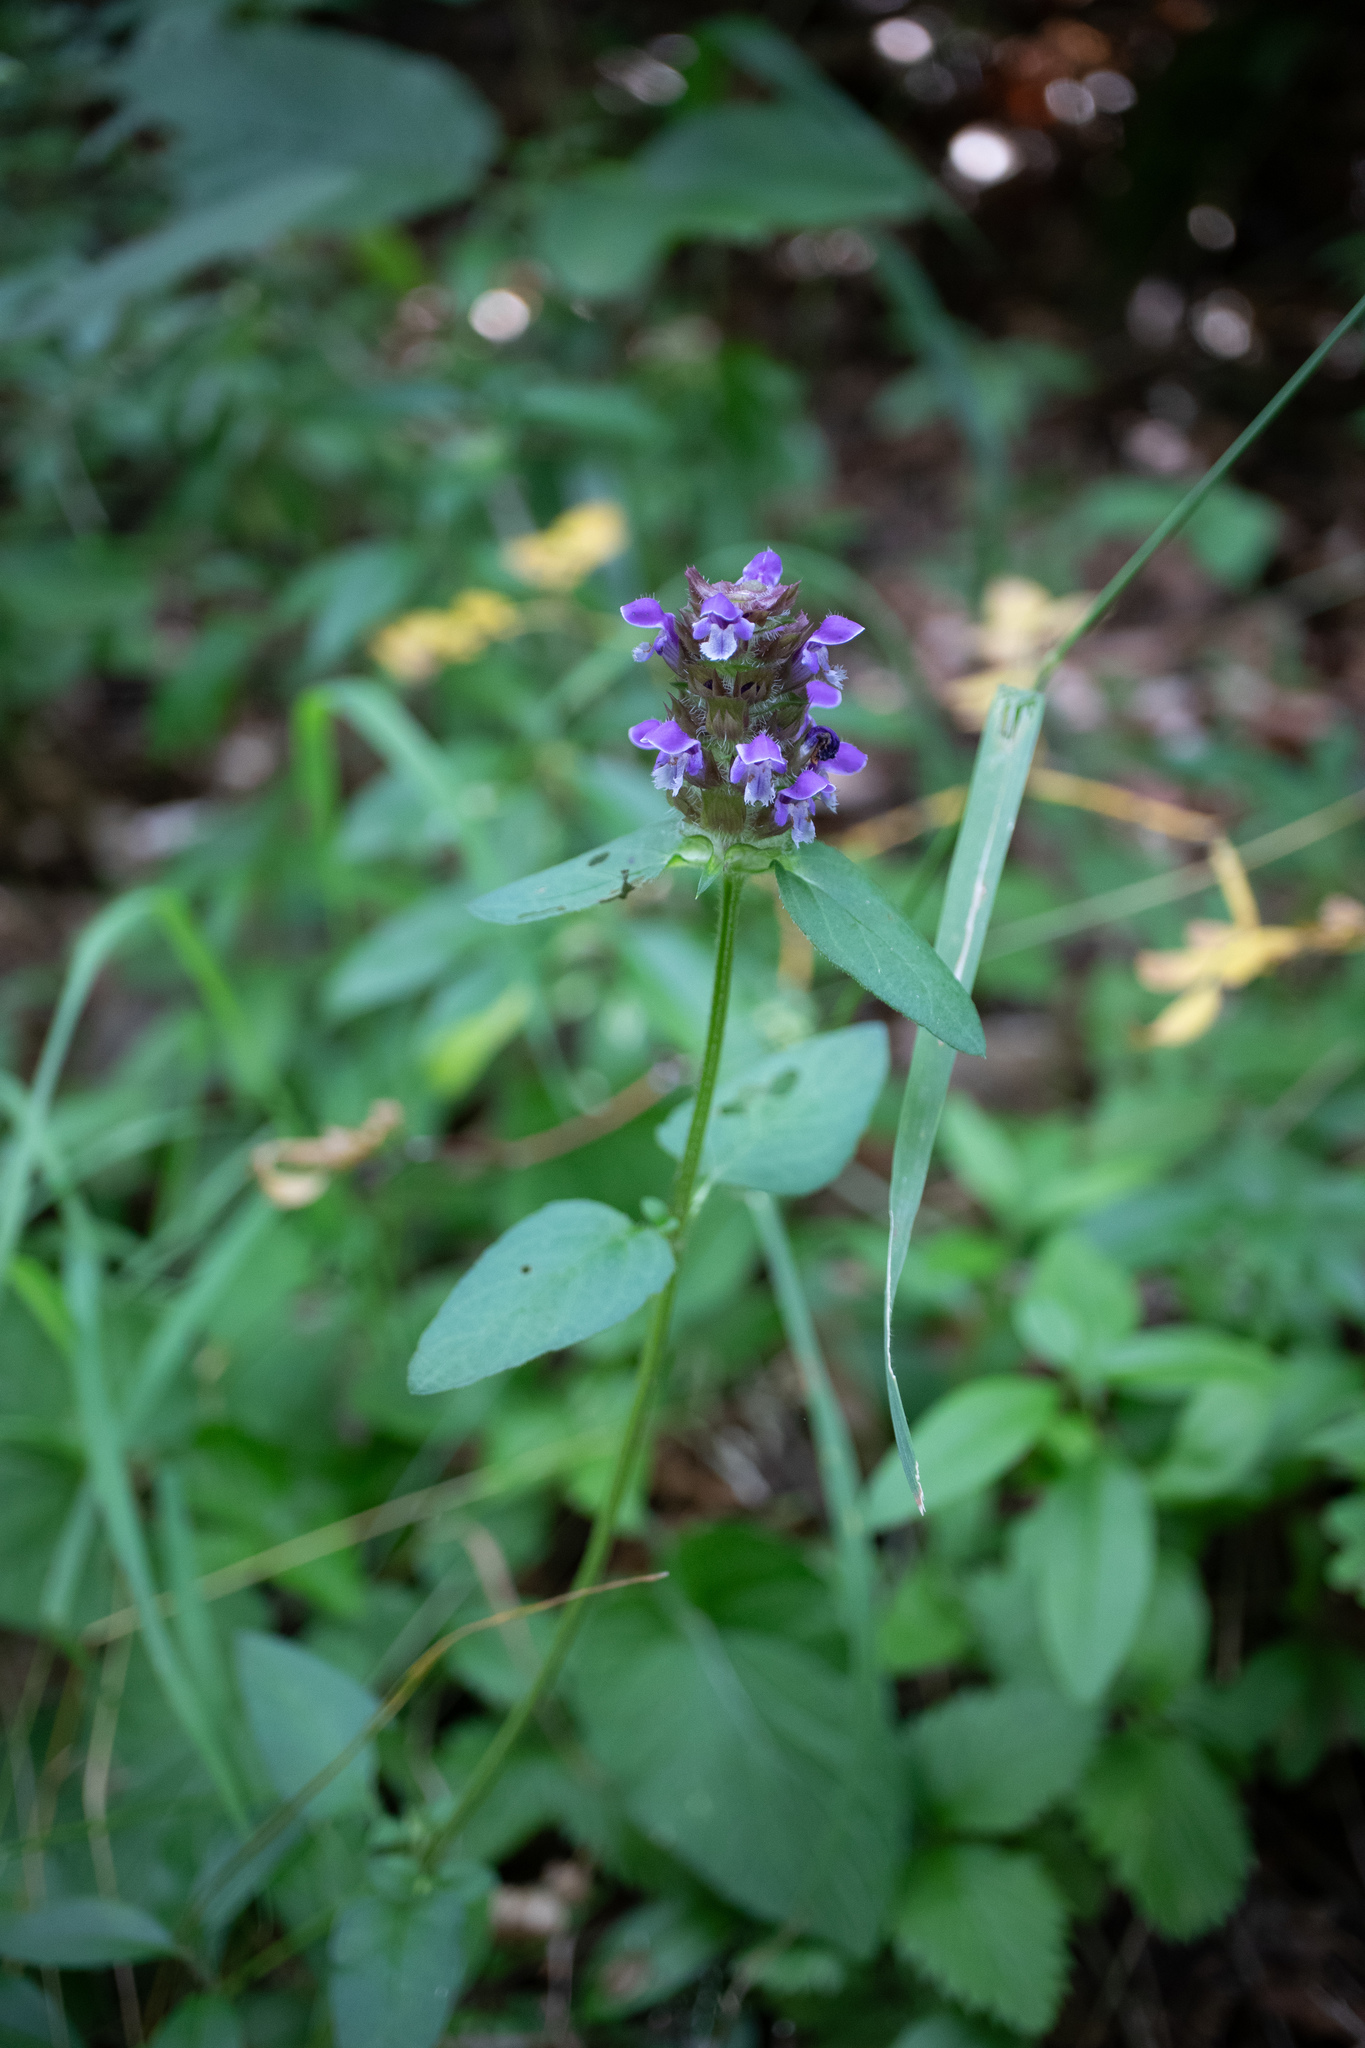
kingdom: Plantae
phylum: Tracheophyta
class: Magnoliopsida
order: Lamiales
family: Lamiaceae
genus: Prunella
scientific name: Prunella vulgaris
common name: Heal-all
